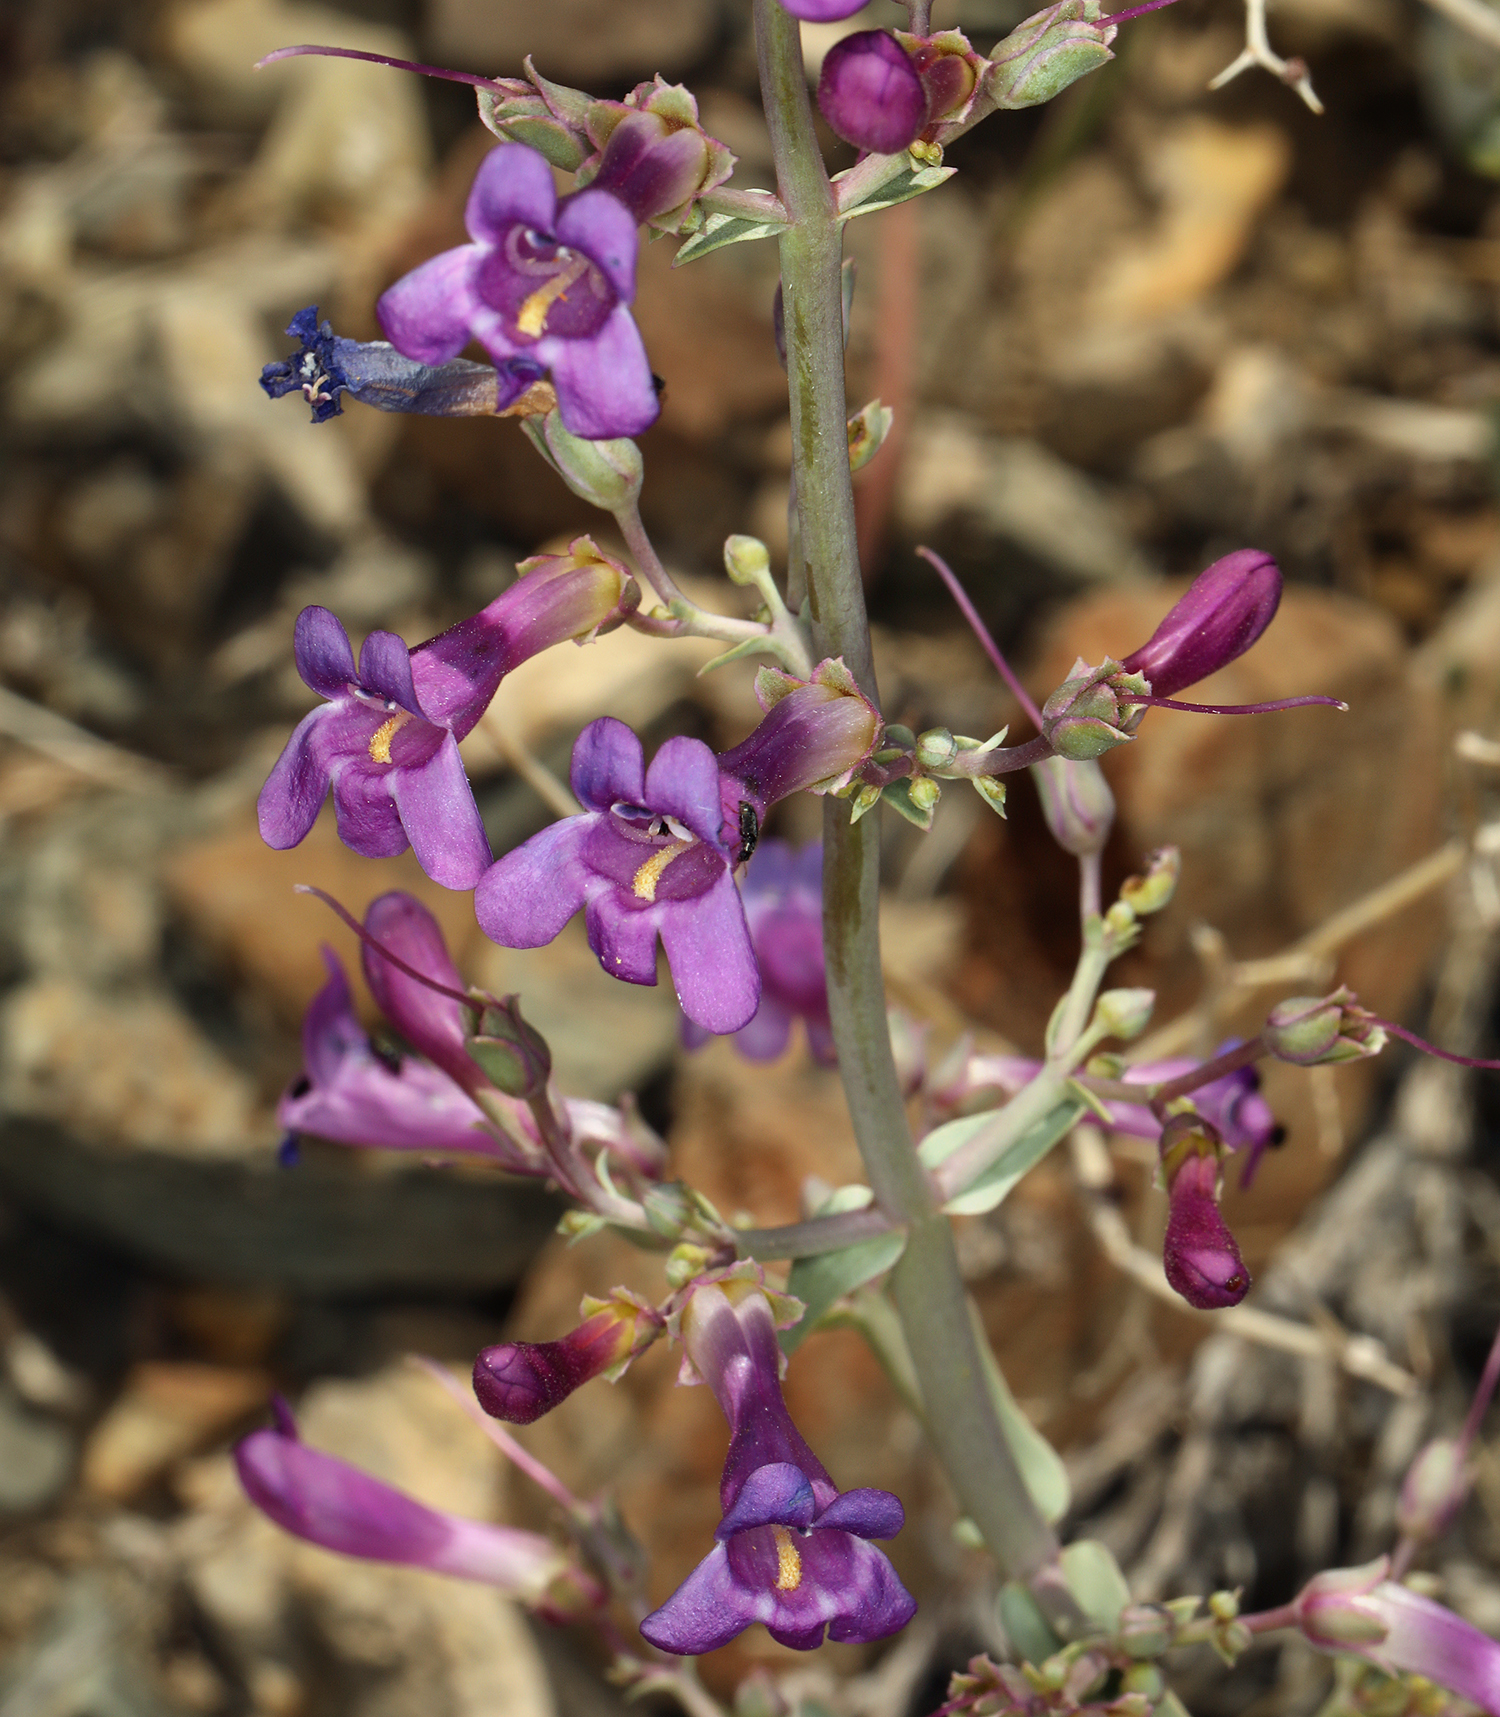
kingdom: Plantae
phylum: Tracheophyta
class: Magnoliopsida
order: Lamiales
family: Plantaginaceae
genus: Penstemon
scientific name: Penstemon patens
